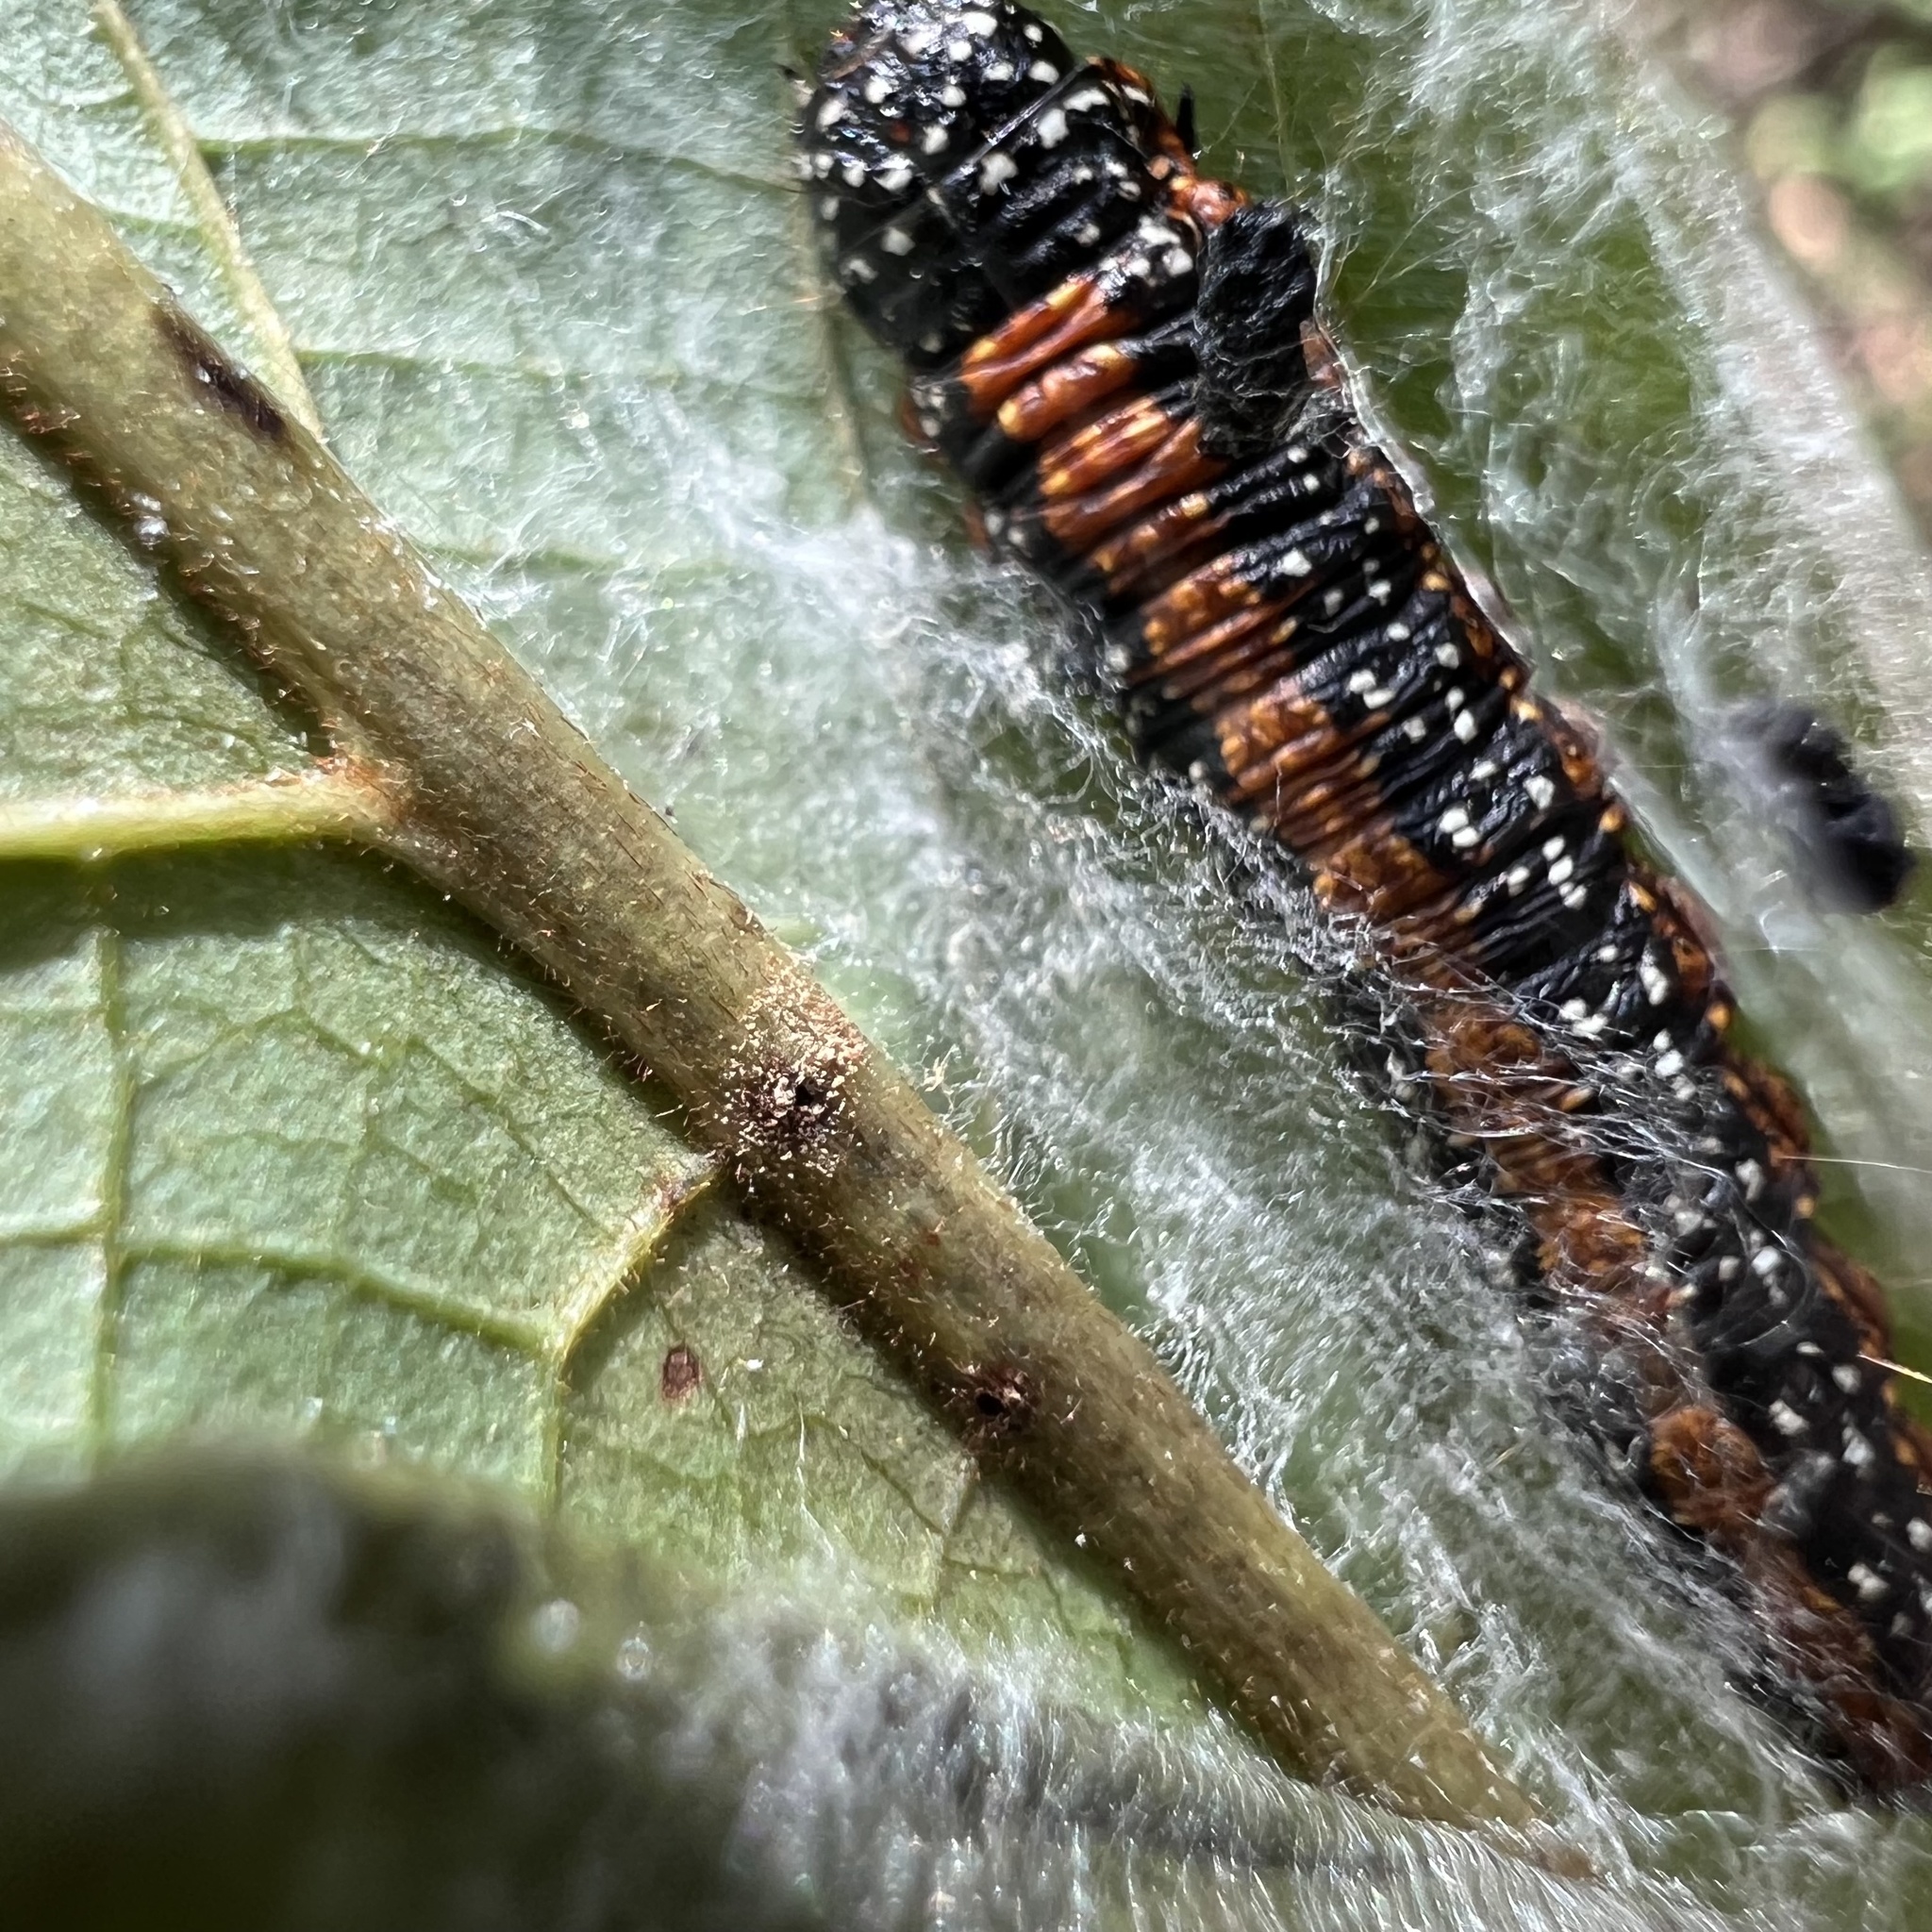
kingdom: Animalia
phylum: Arthropoda
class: Insecta
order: Lepidoptera
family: Pyralidae
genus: Omphalocera
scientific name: Omphalocera munroei
